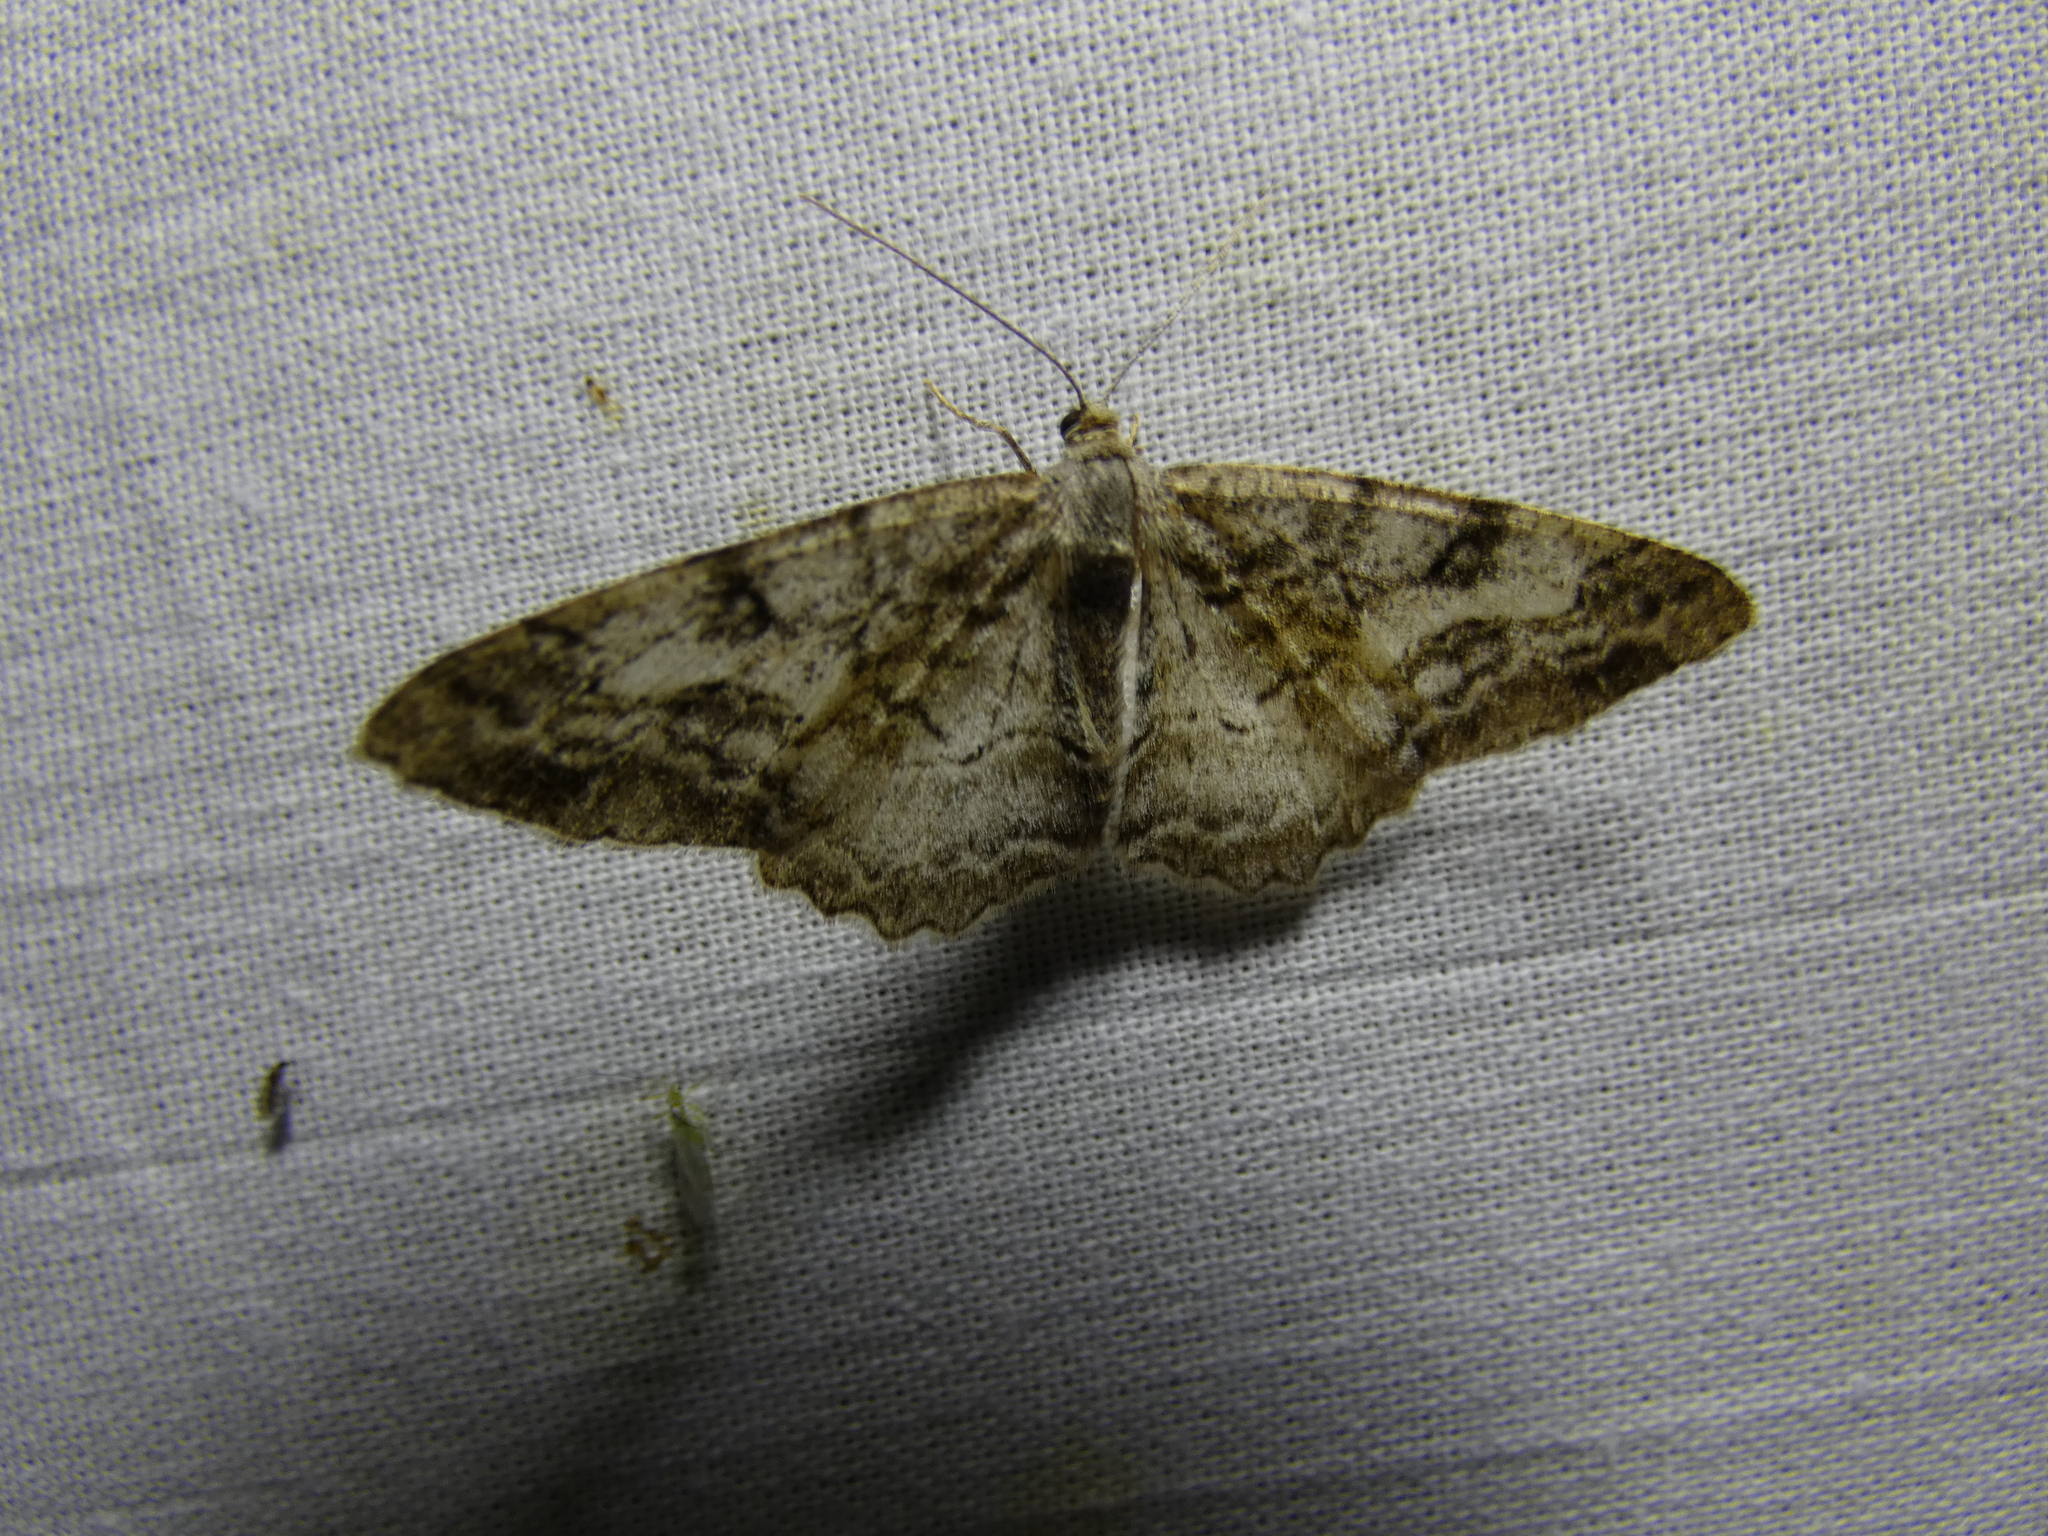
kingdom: Animalia
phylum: Arthropoda
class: Insecta
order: Lepidoptera
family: Geometridae
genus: Alcis
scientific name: Alcis repandata
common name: Mottled beauty
